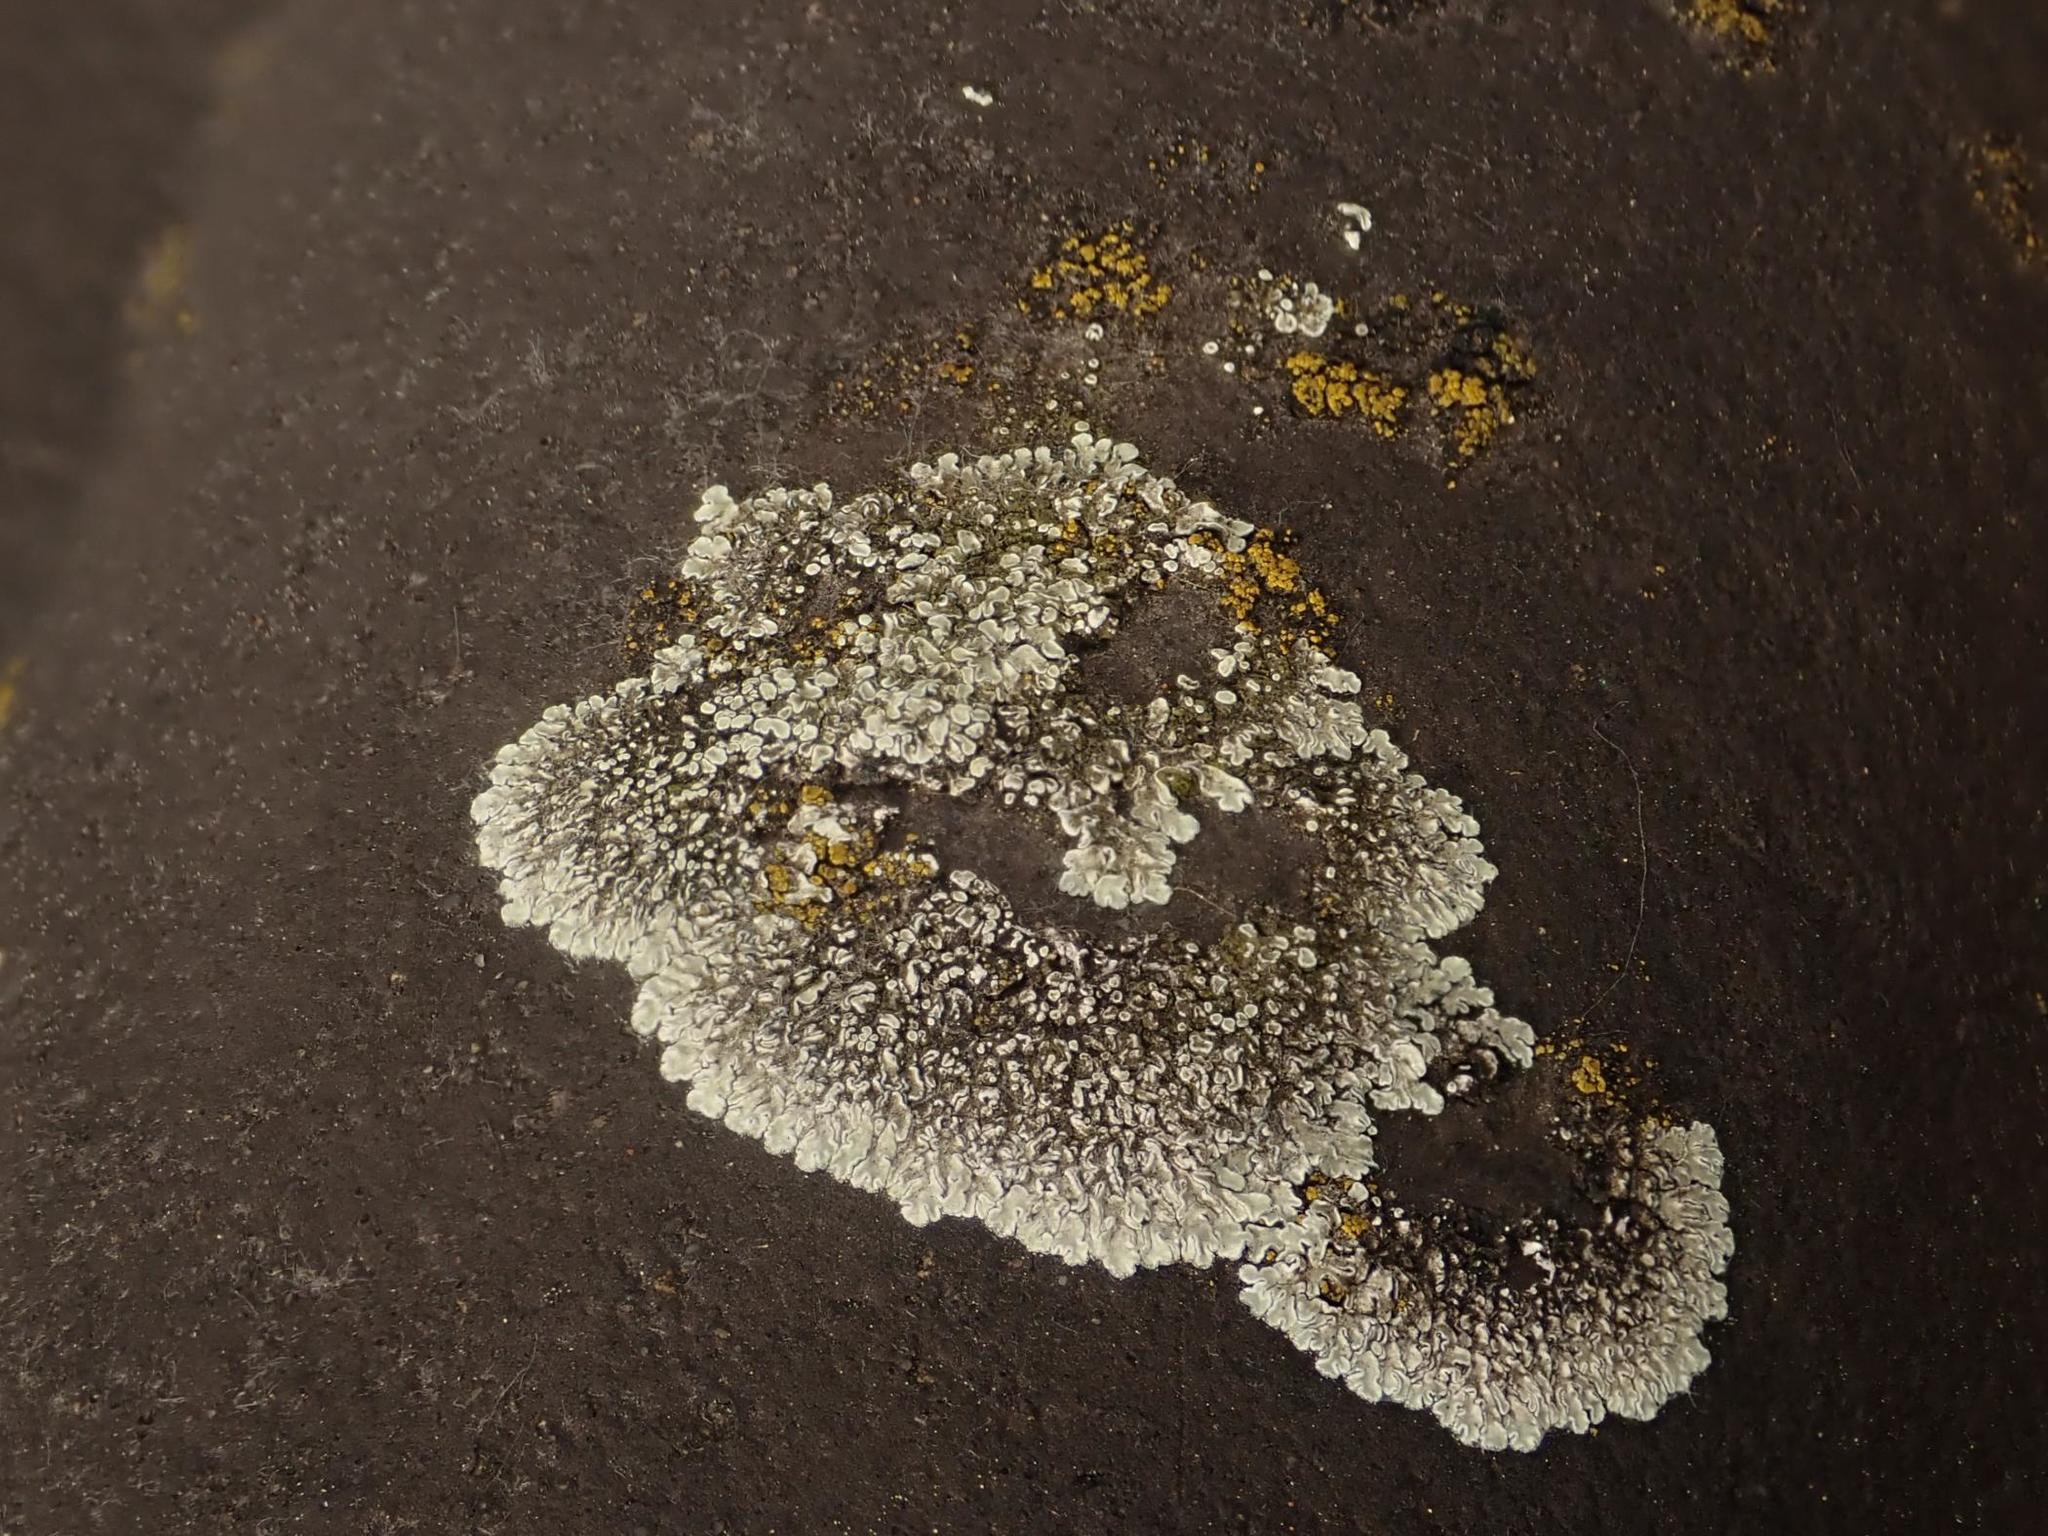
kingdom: Fungi
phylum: Ascomycota
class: Lecanoromycetes
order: Lecanorales
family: Lecanoraceae
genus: Protoparmeliopsis
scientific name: Protoparmeliopsis muralis
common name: Stonewall rim lichen
